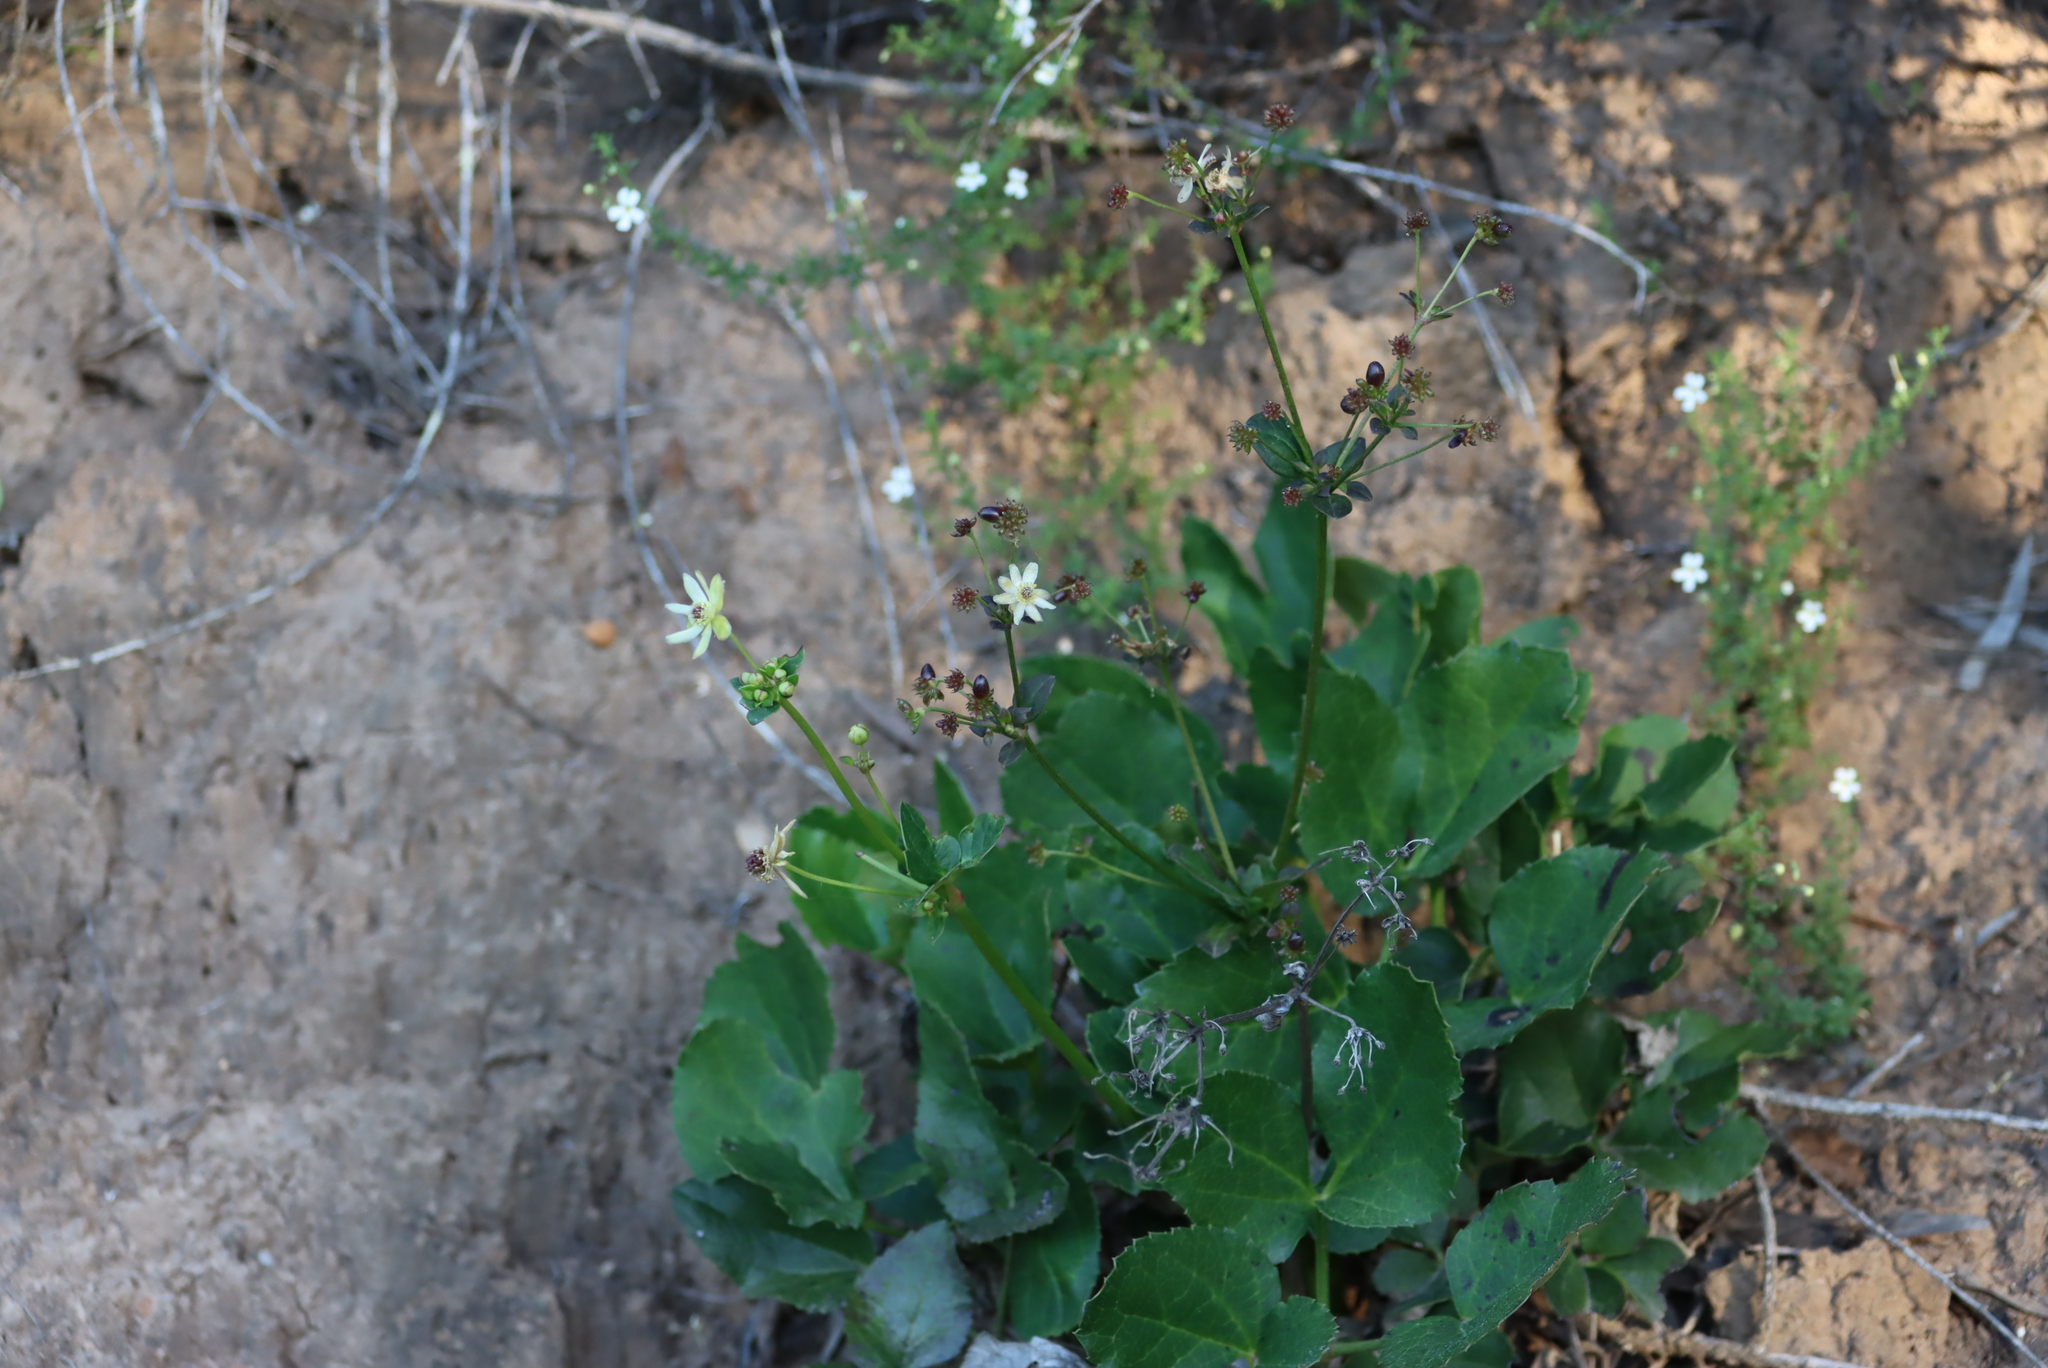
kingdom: Plantae
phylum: Tracheophyta
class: Magnoliopsida
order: Ranunculales
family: Ranunculaceae
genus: Knowltonia
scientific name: Knowltonia vesicatoria
